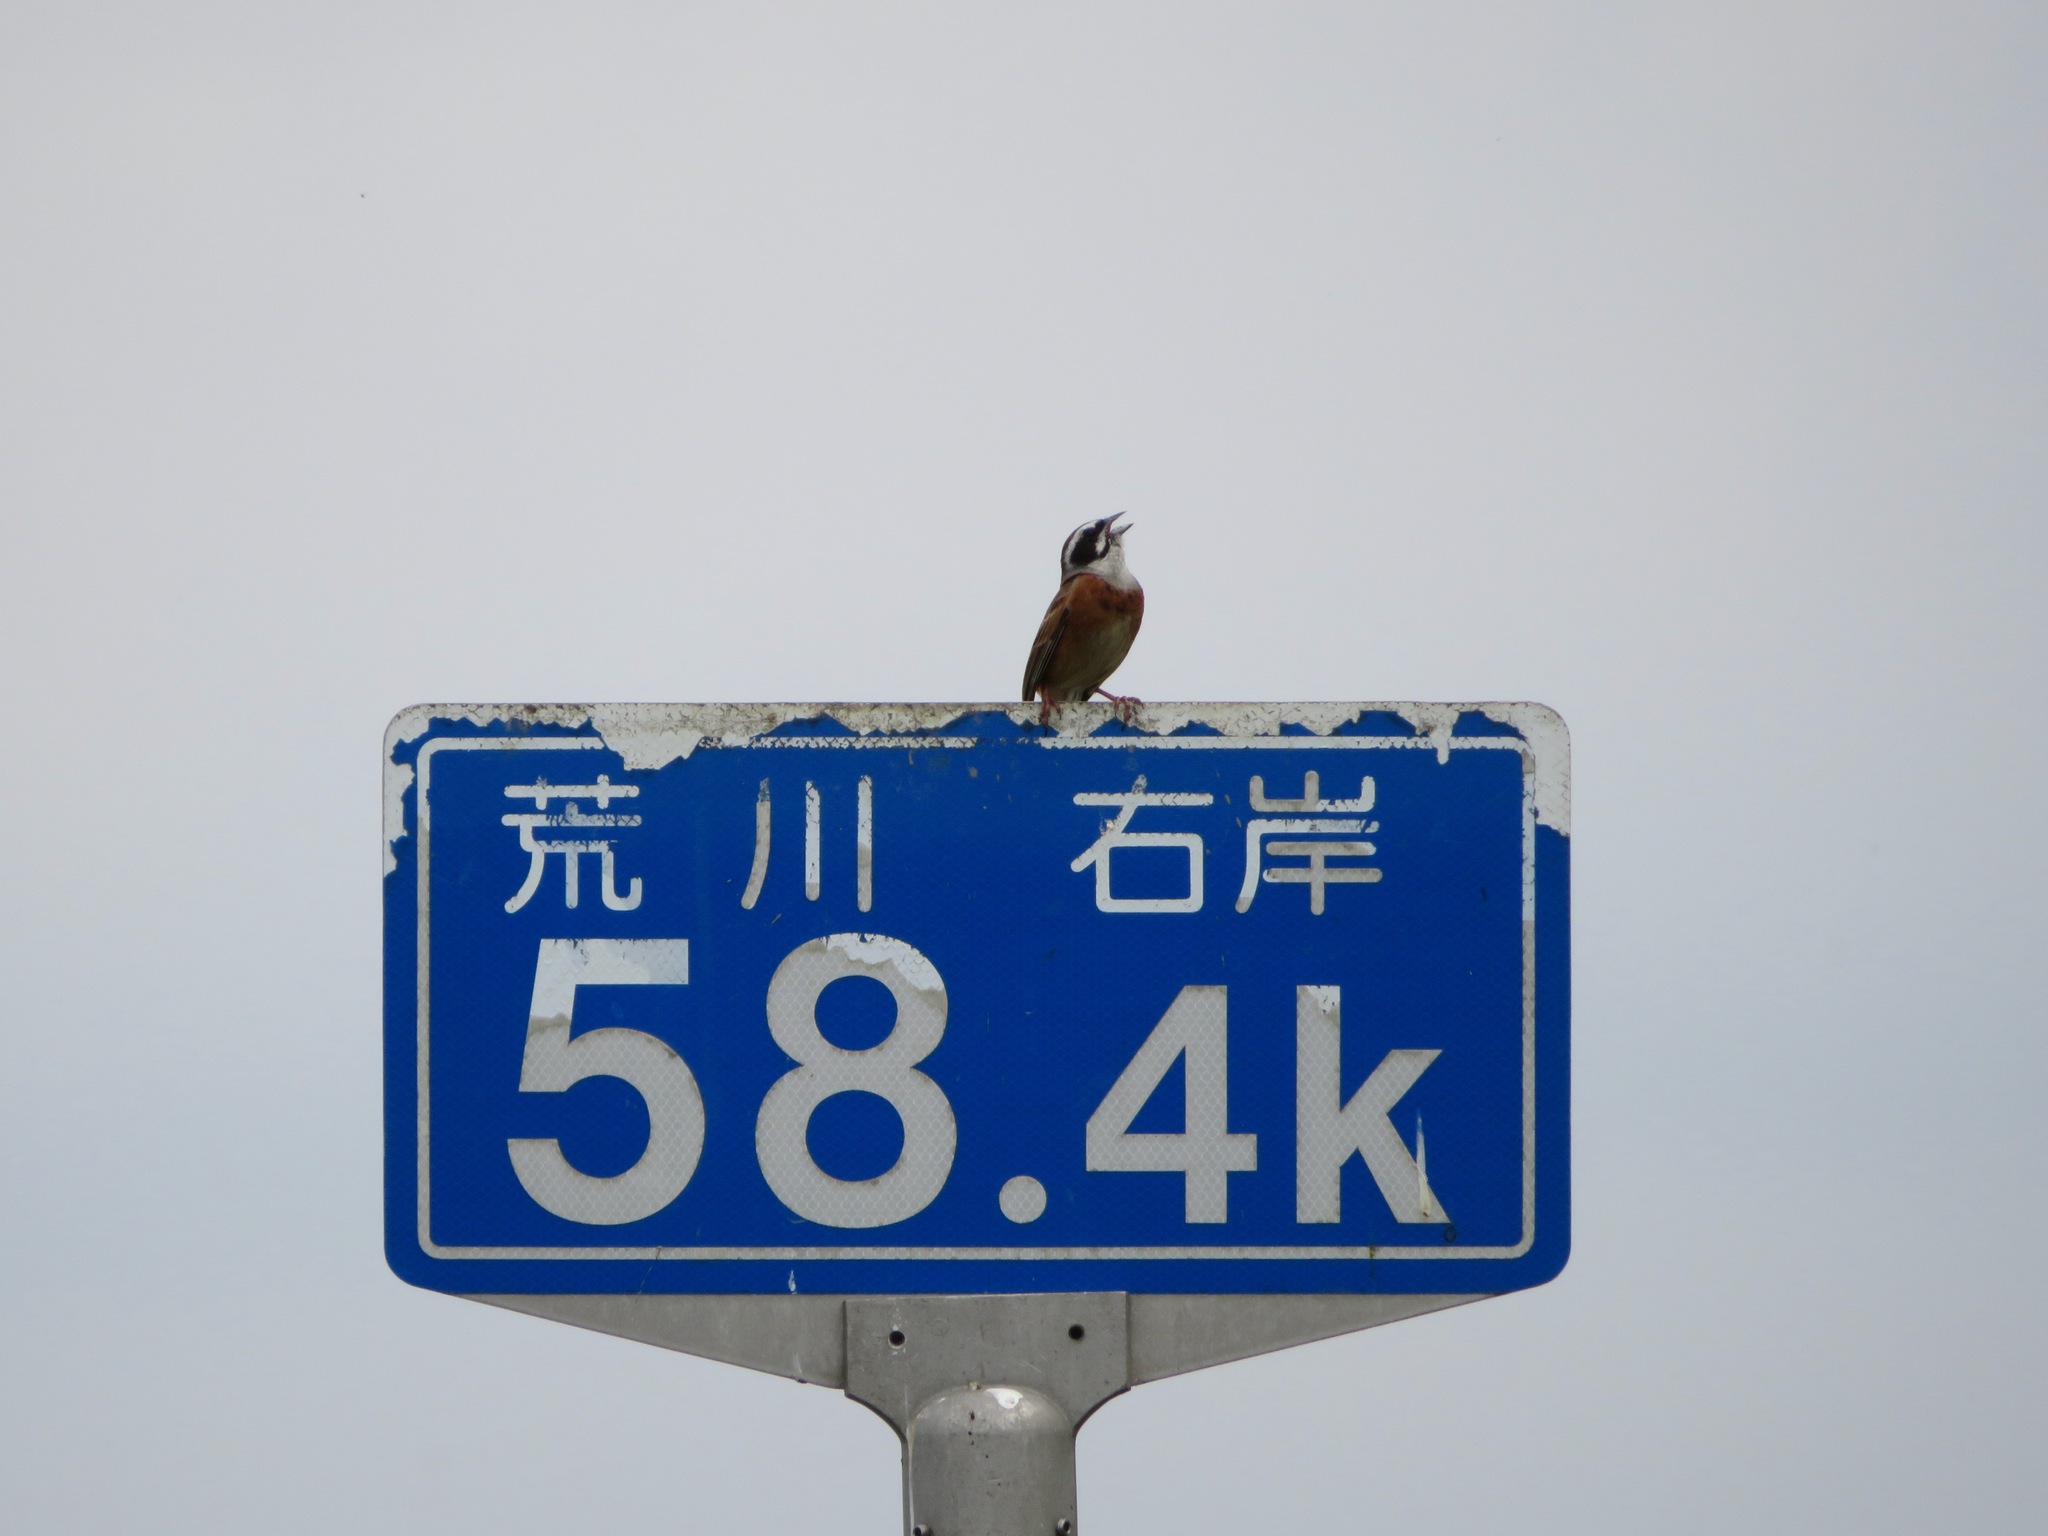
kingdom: Animalia
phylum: Chordata
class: Aves
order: Passeriformes
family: Emberizidae
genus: Emberiza
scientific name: Emberiza cioides
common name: Meadow bunting
